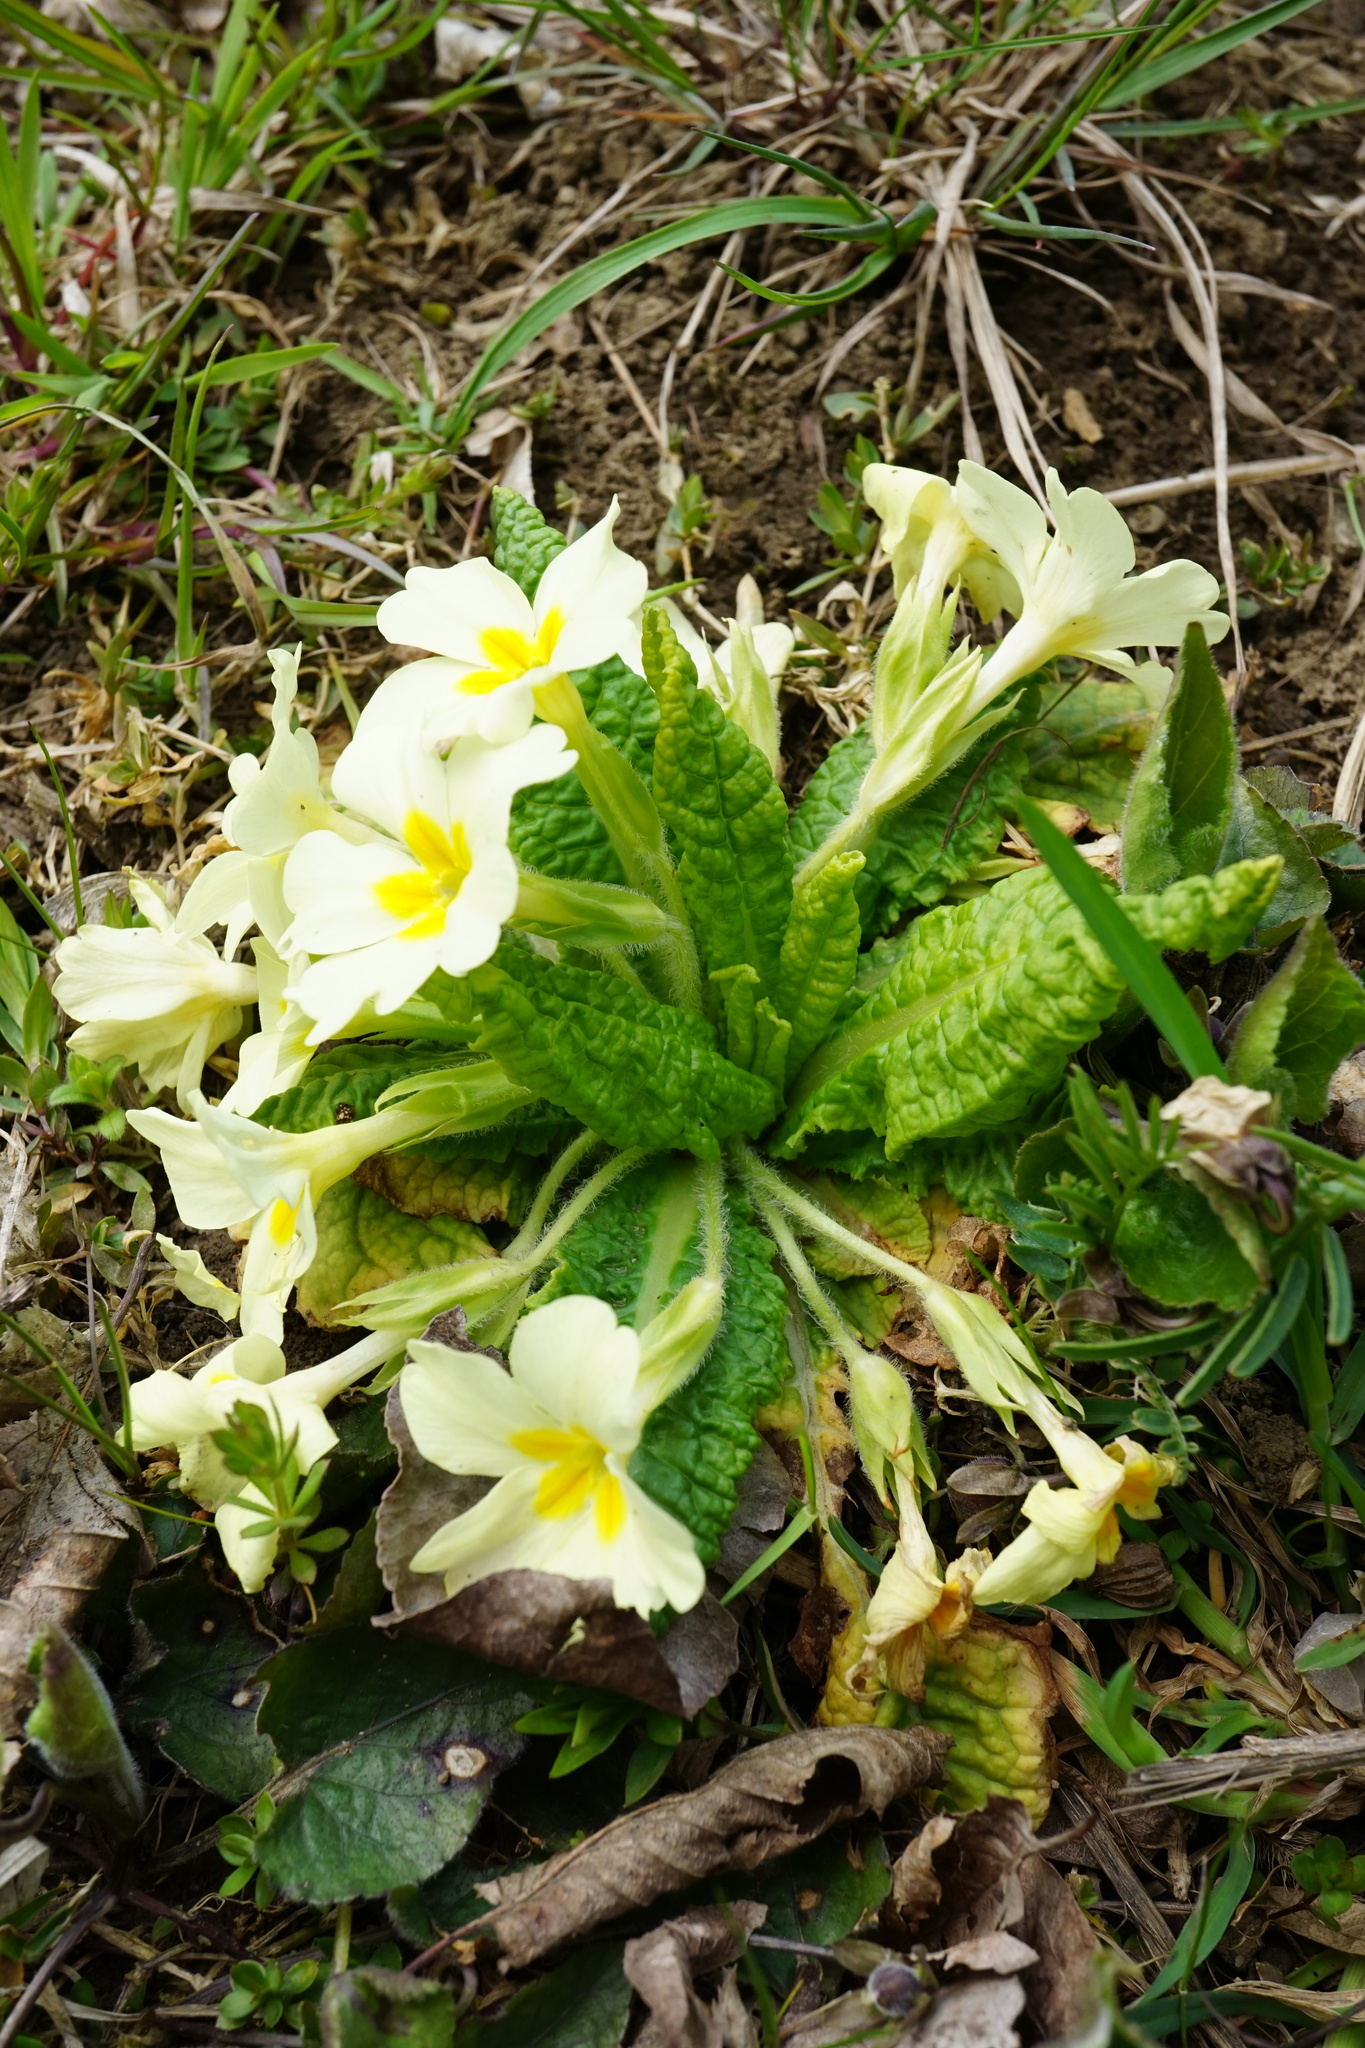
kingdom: Plantae
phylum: Tracheophyta
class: Magnoliopsida
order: Ericales
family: Primulaceae
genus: Primula
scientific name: Primula vulgaris
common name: Primrose
